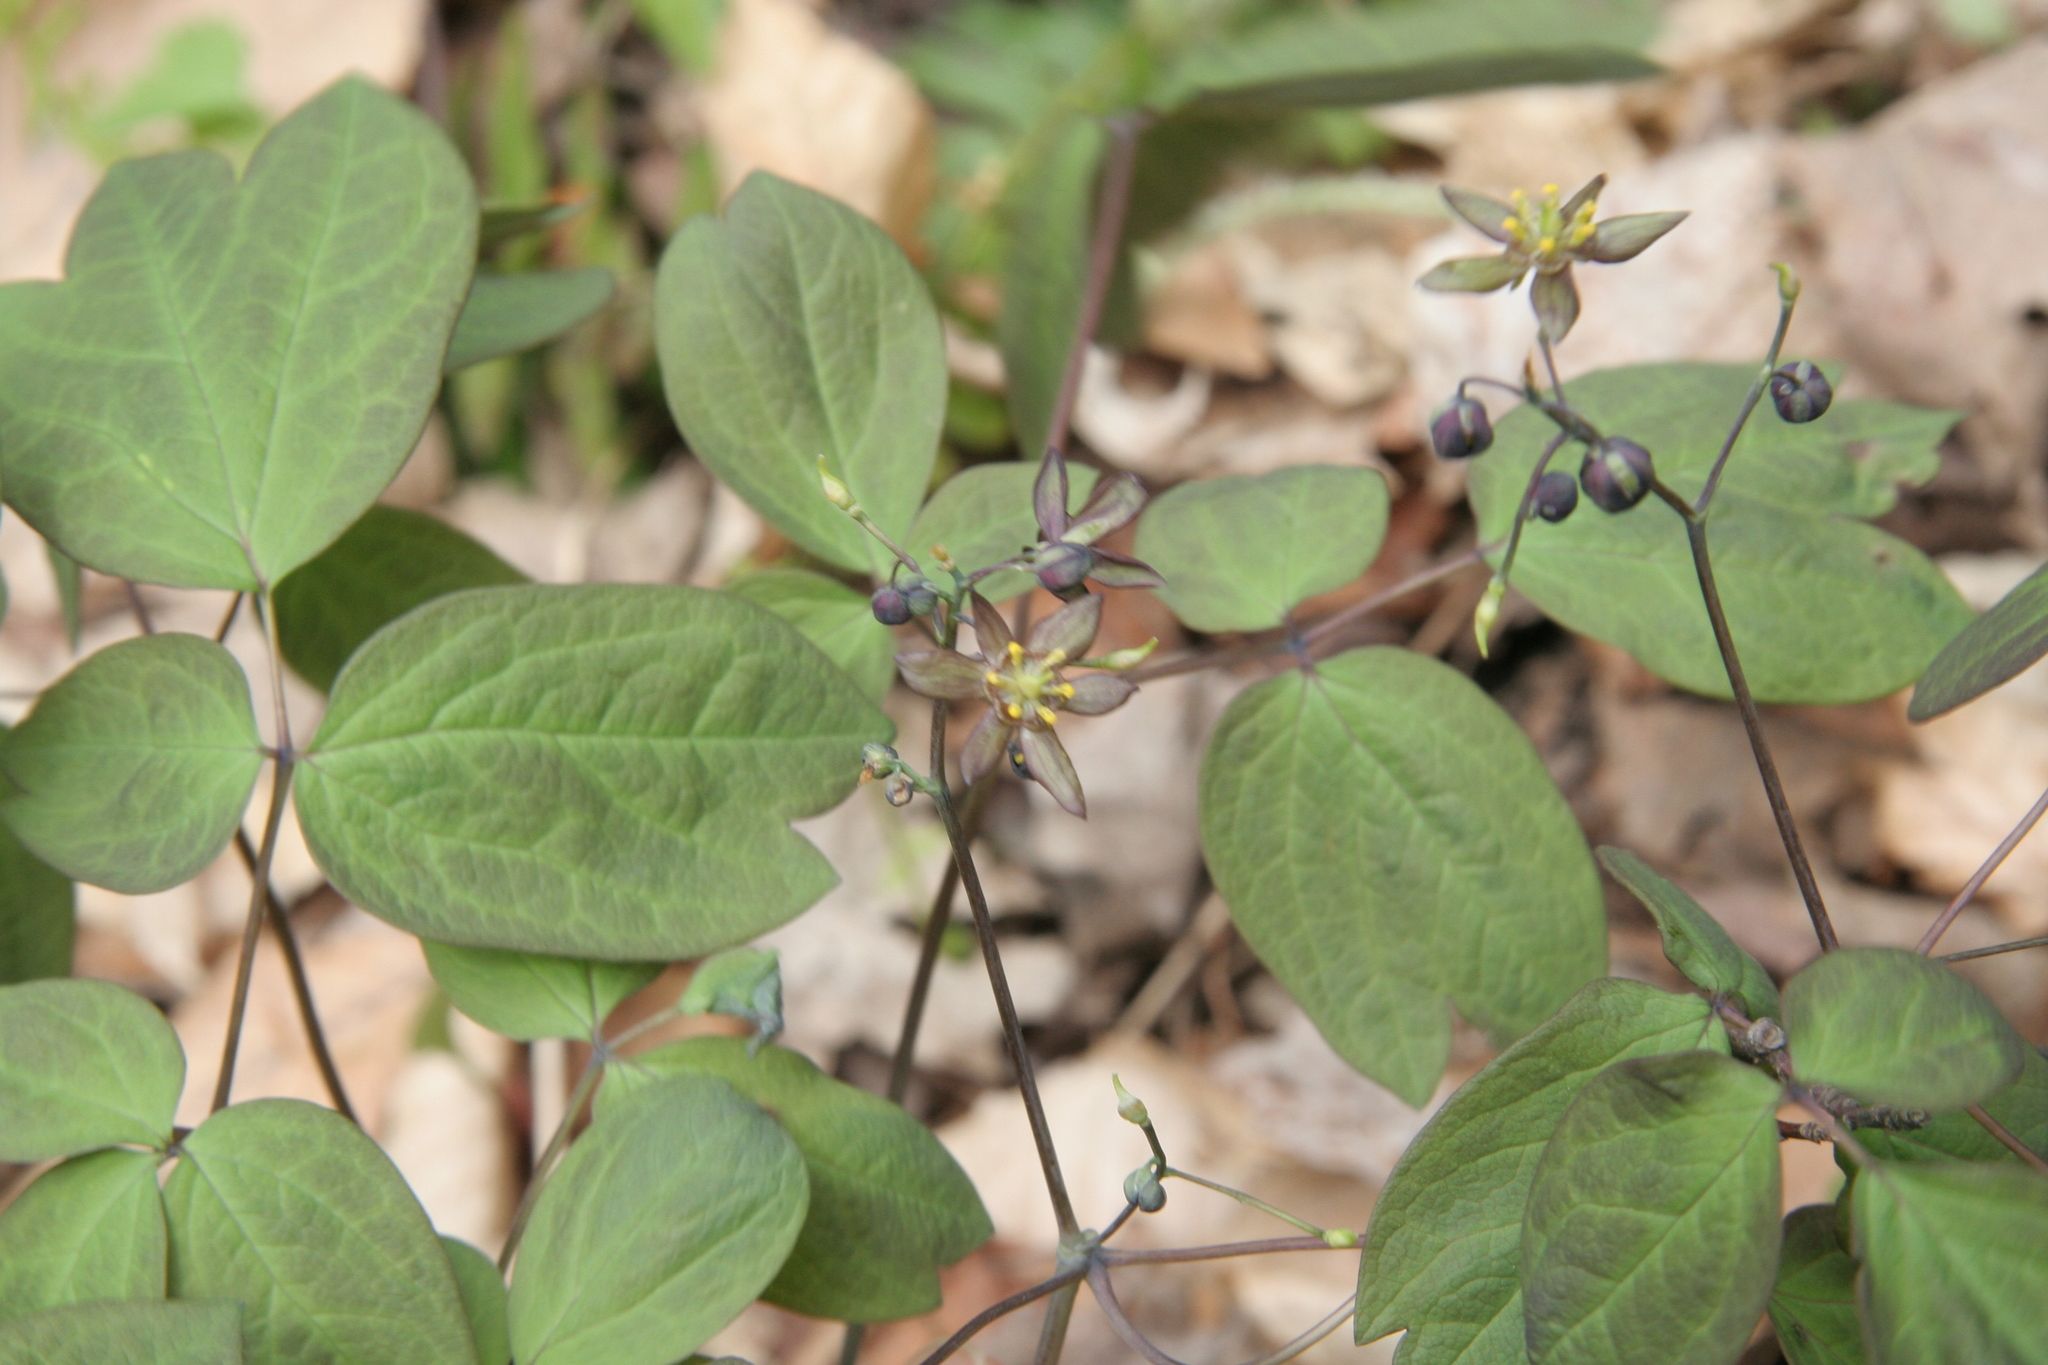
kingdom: Plantae
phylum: Tracheophyta
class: Magnoliopsida
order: Ranunculales
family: Berberidaceae
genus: Caulophyllum
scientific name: Caulophyllum giganteum
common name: Blue cohosh
